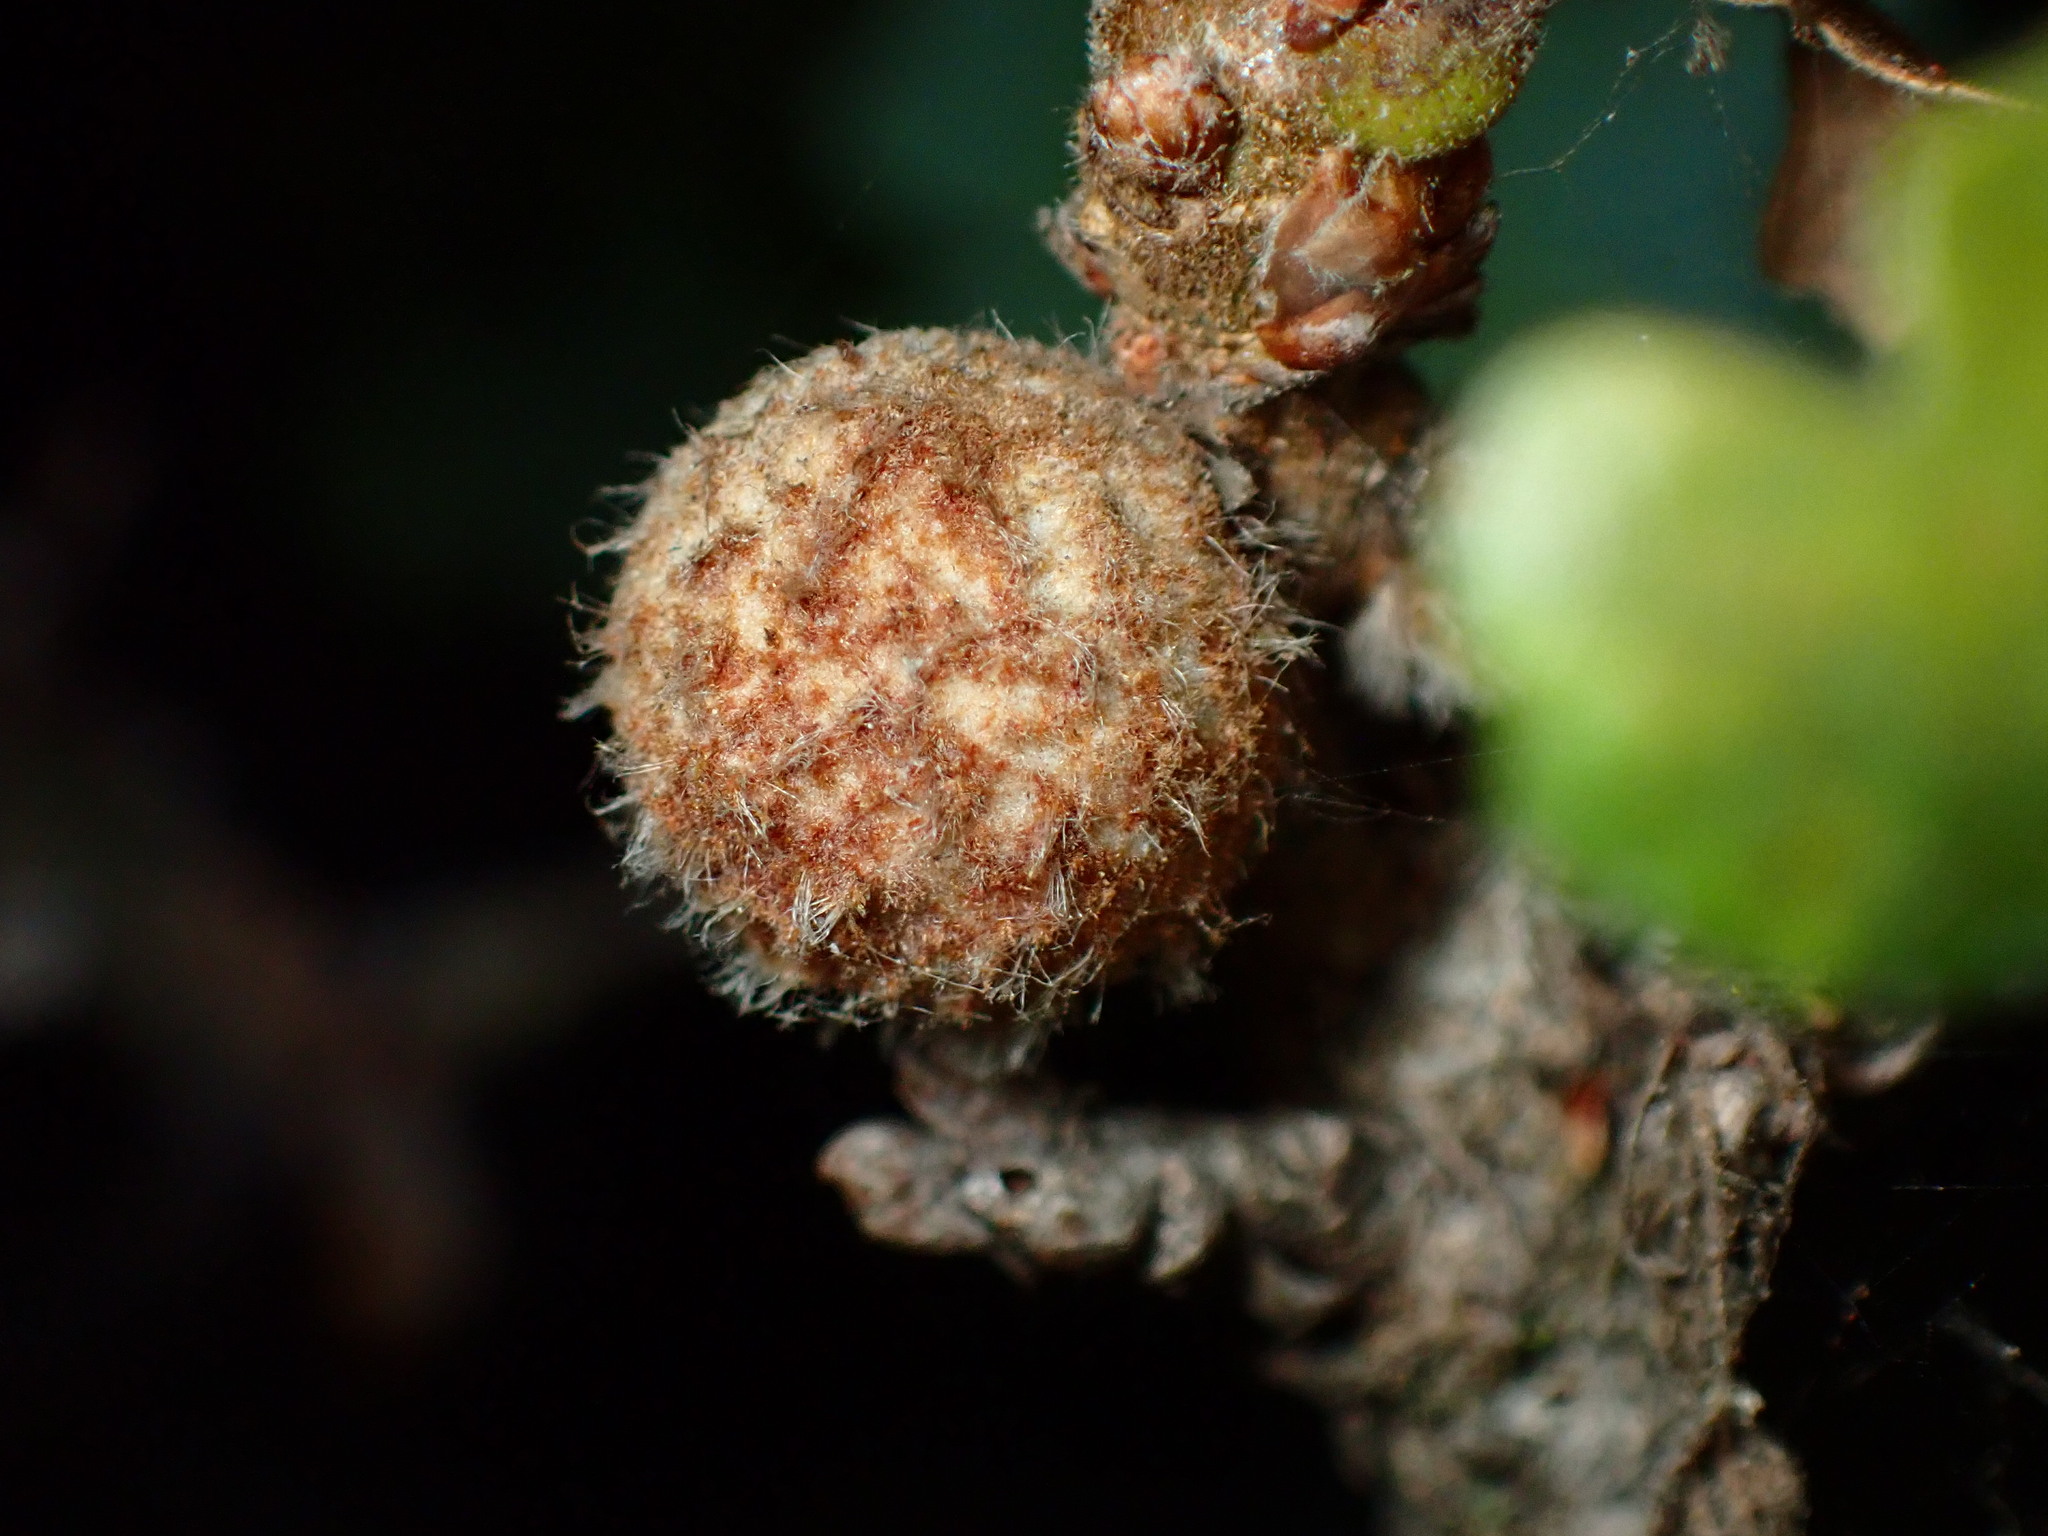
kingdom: Animalia
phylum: Arthropoda
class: Insecta
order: Hymenoptera
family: Cynipidae
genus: Burnettweldia
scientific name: Burnettweldia
